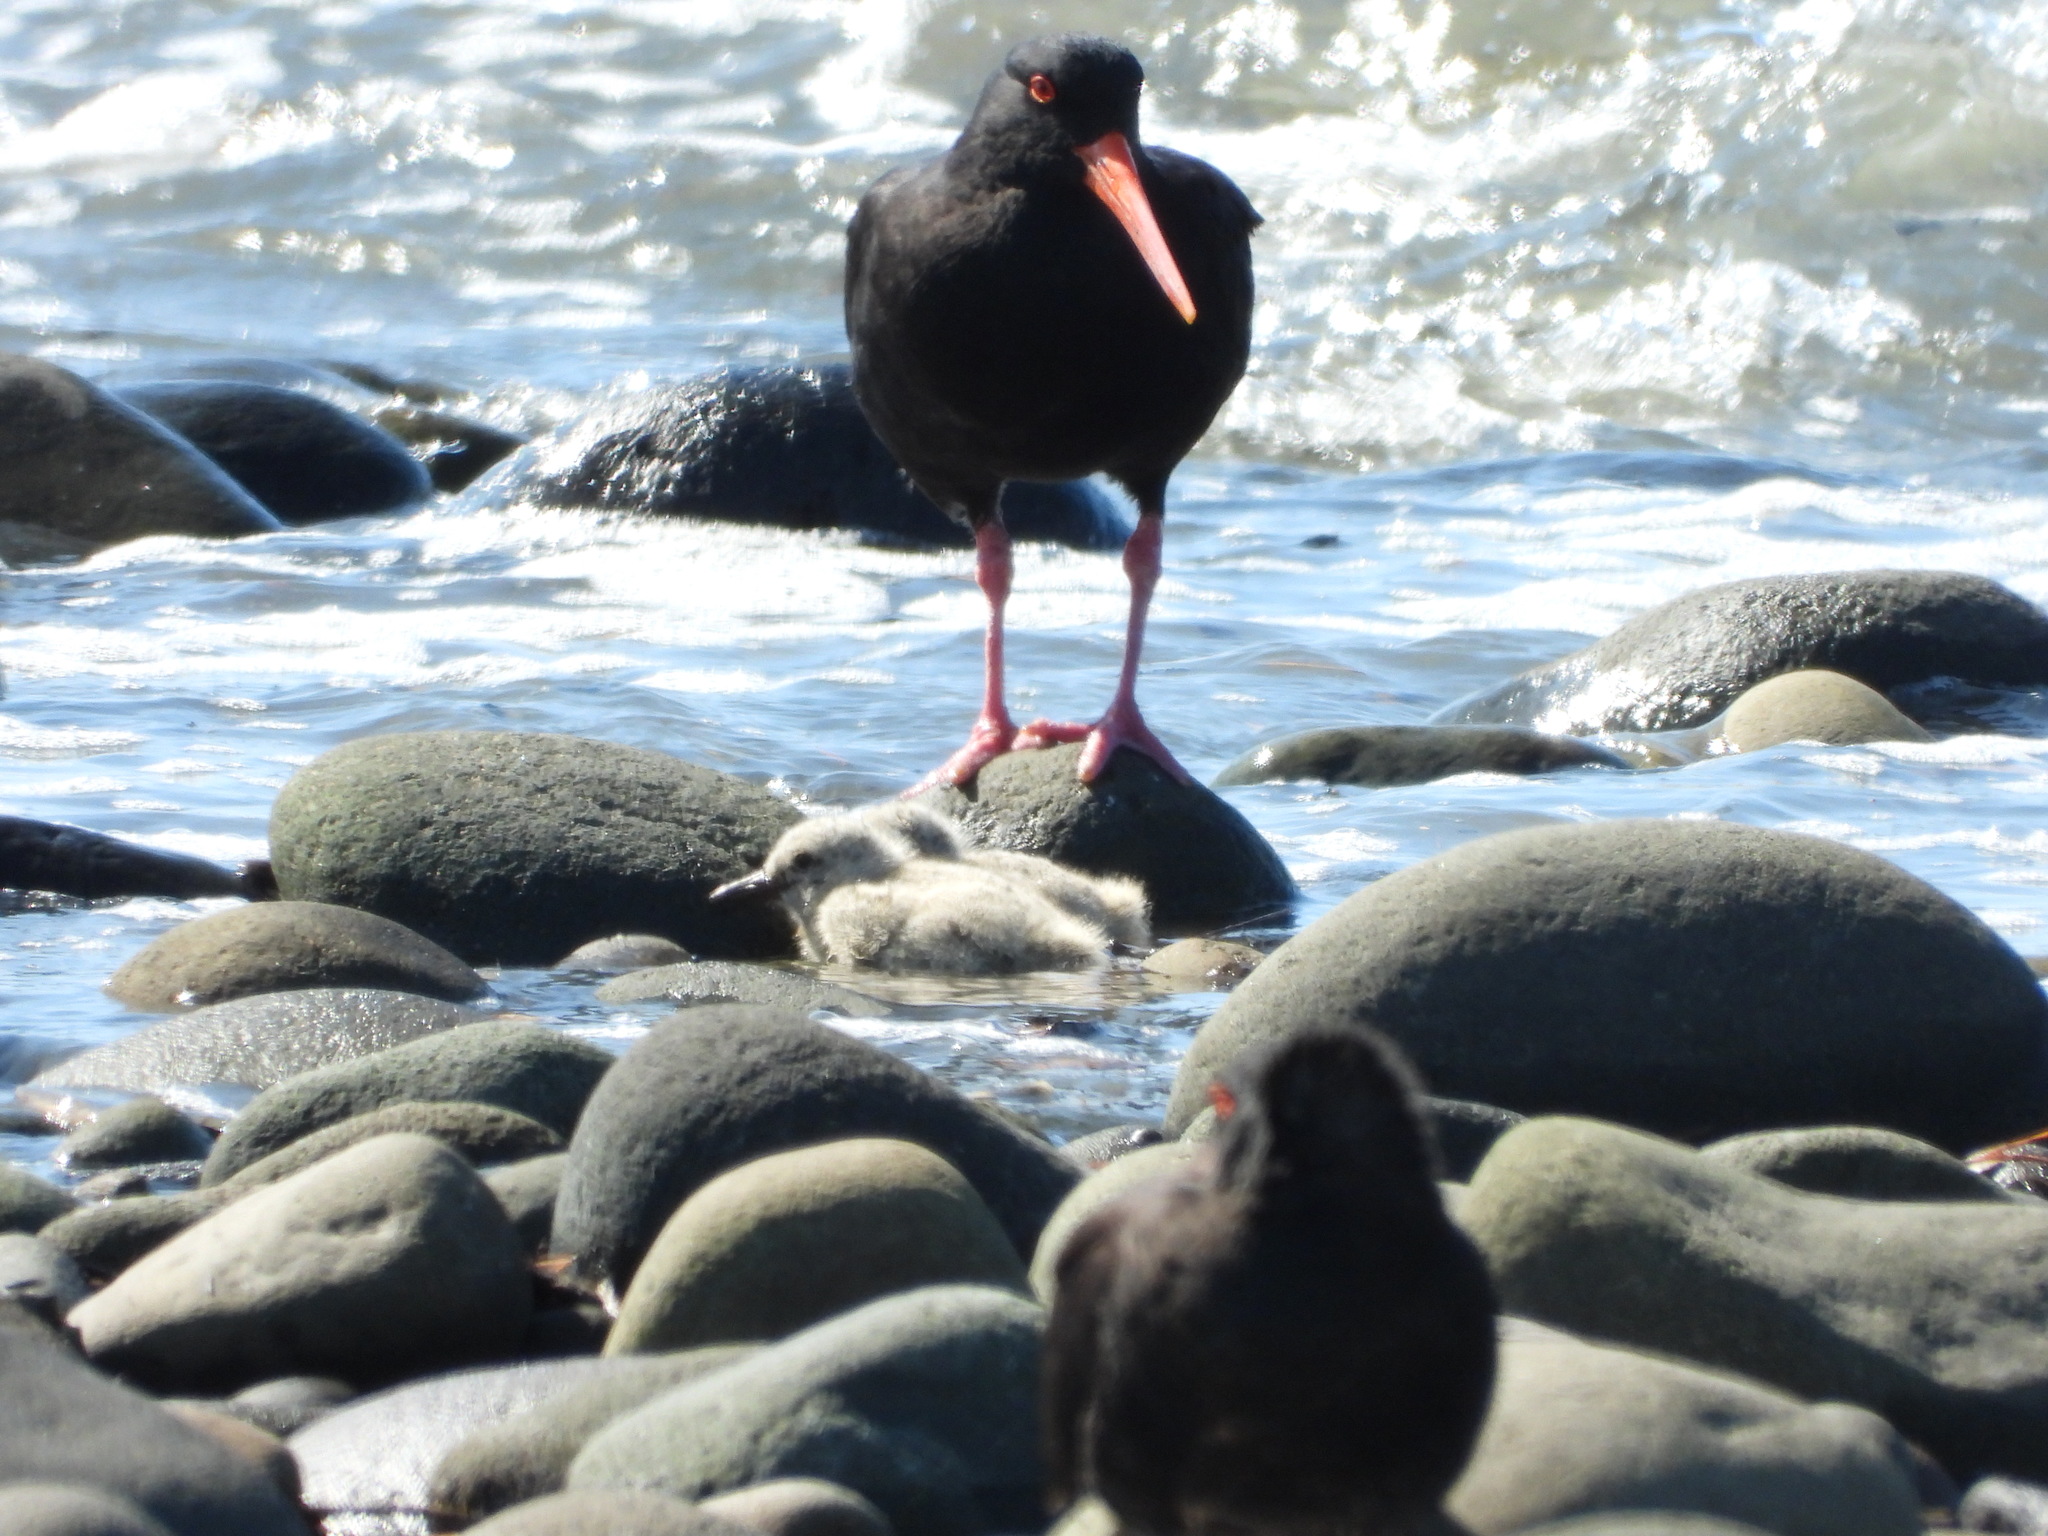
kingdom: Animalia
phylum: Chordata
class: Aves
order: Charadriiformes
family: Haematopodidae
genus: Haematopus
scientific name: Haematopus unicolor
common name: Variable oystercatcher
